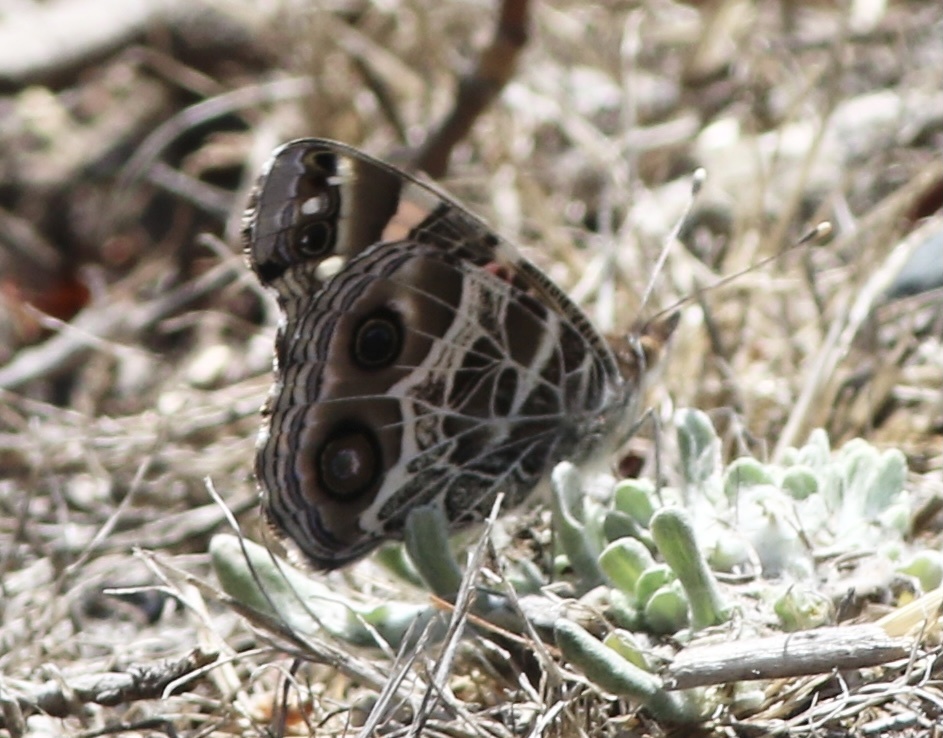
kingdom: Animalia
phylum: Arthropoda
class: Insecta
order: Lepidoptera
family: Nymphalidae
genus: Vanessa
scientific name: Vanessa virginiensis
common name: American lady
